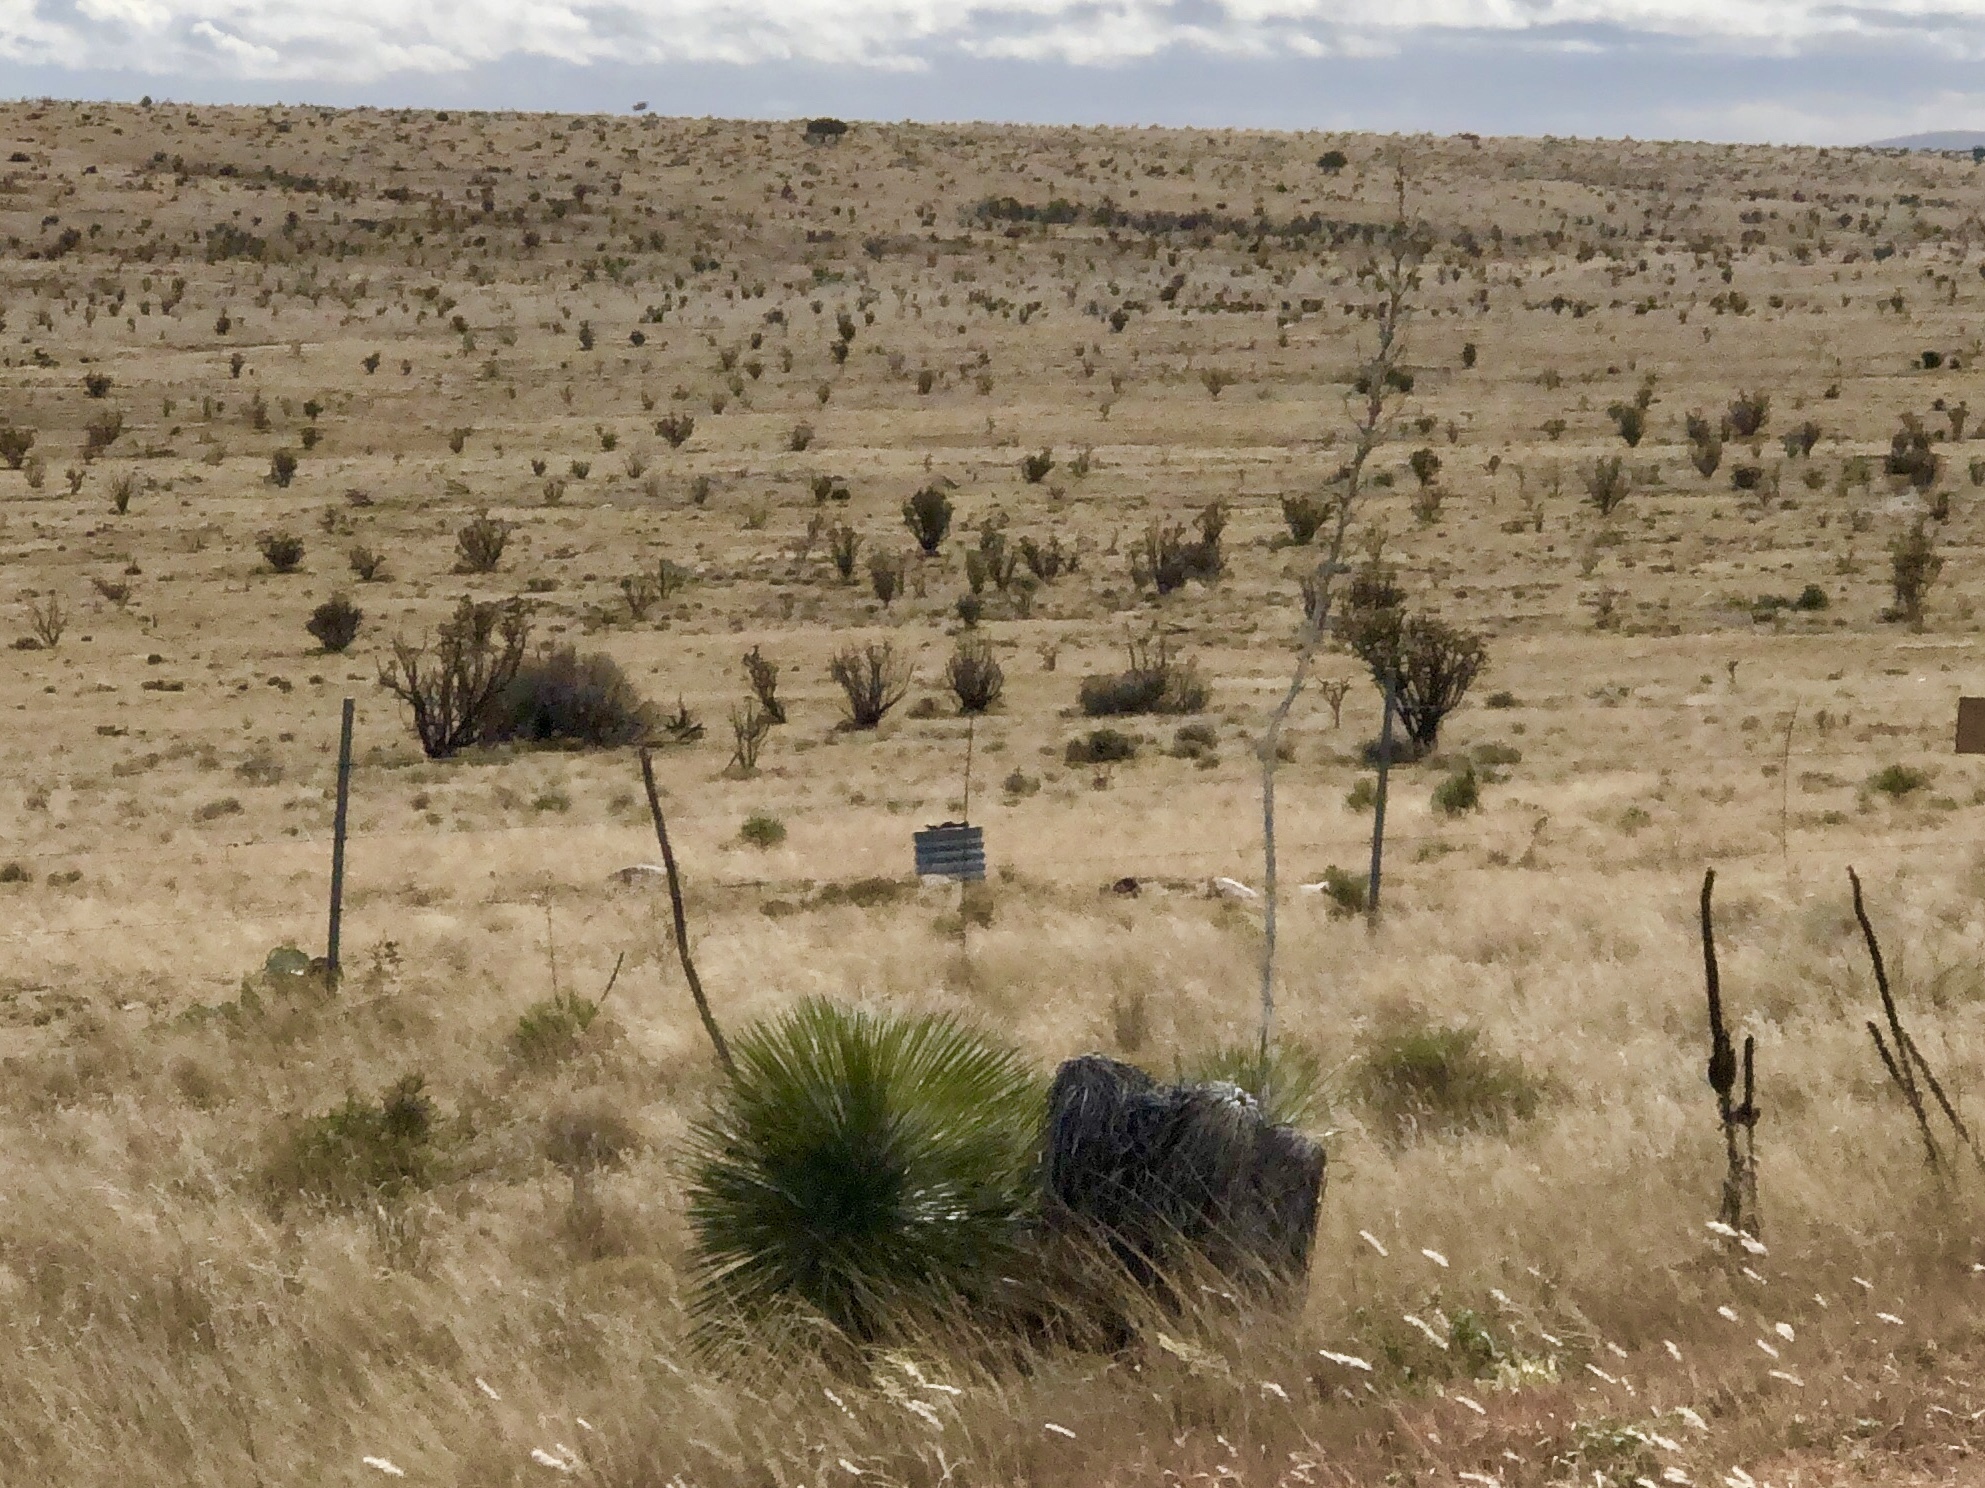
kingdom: Plantae
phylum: Tracheophyta
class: Liliopsida
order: Asparagales
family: Asparagaceae
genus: Yucca
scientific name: Yucca elata
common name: Palmella
